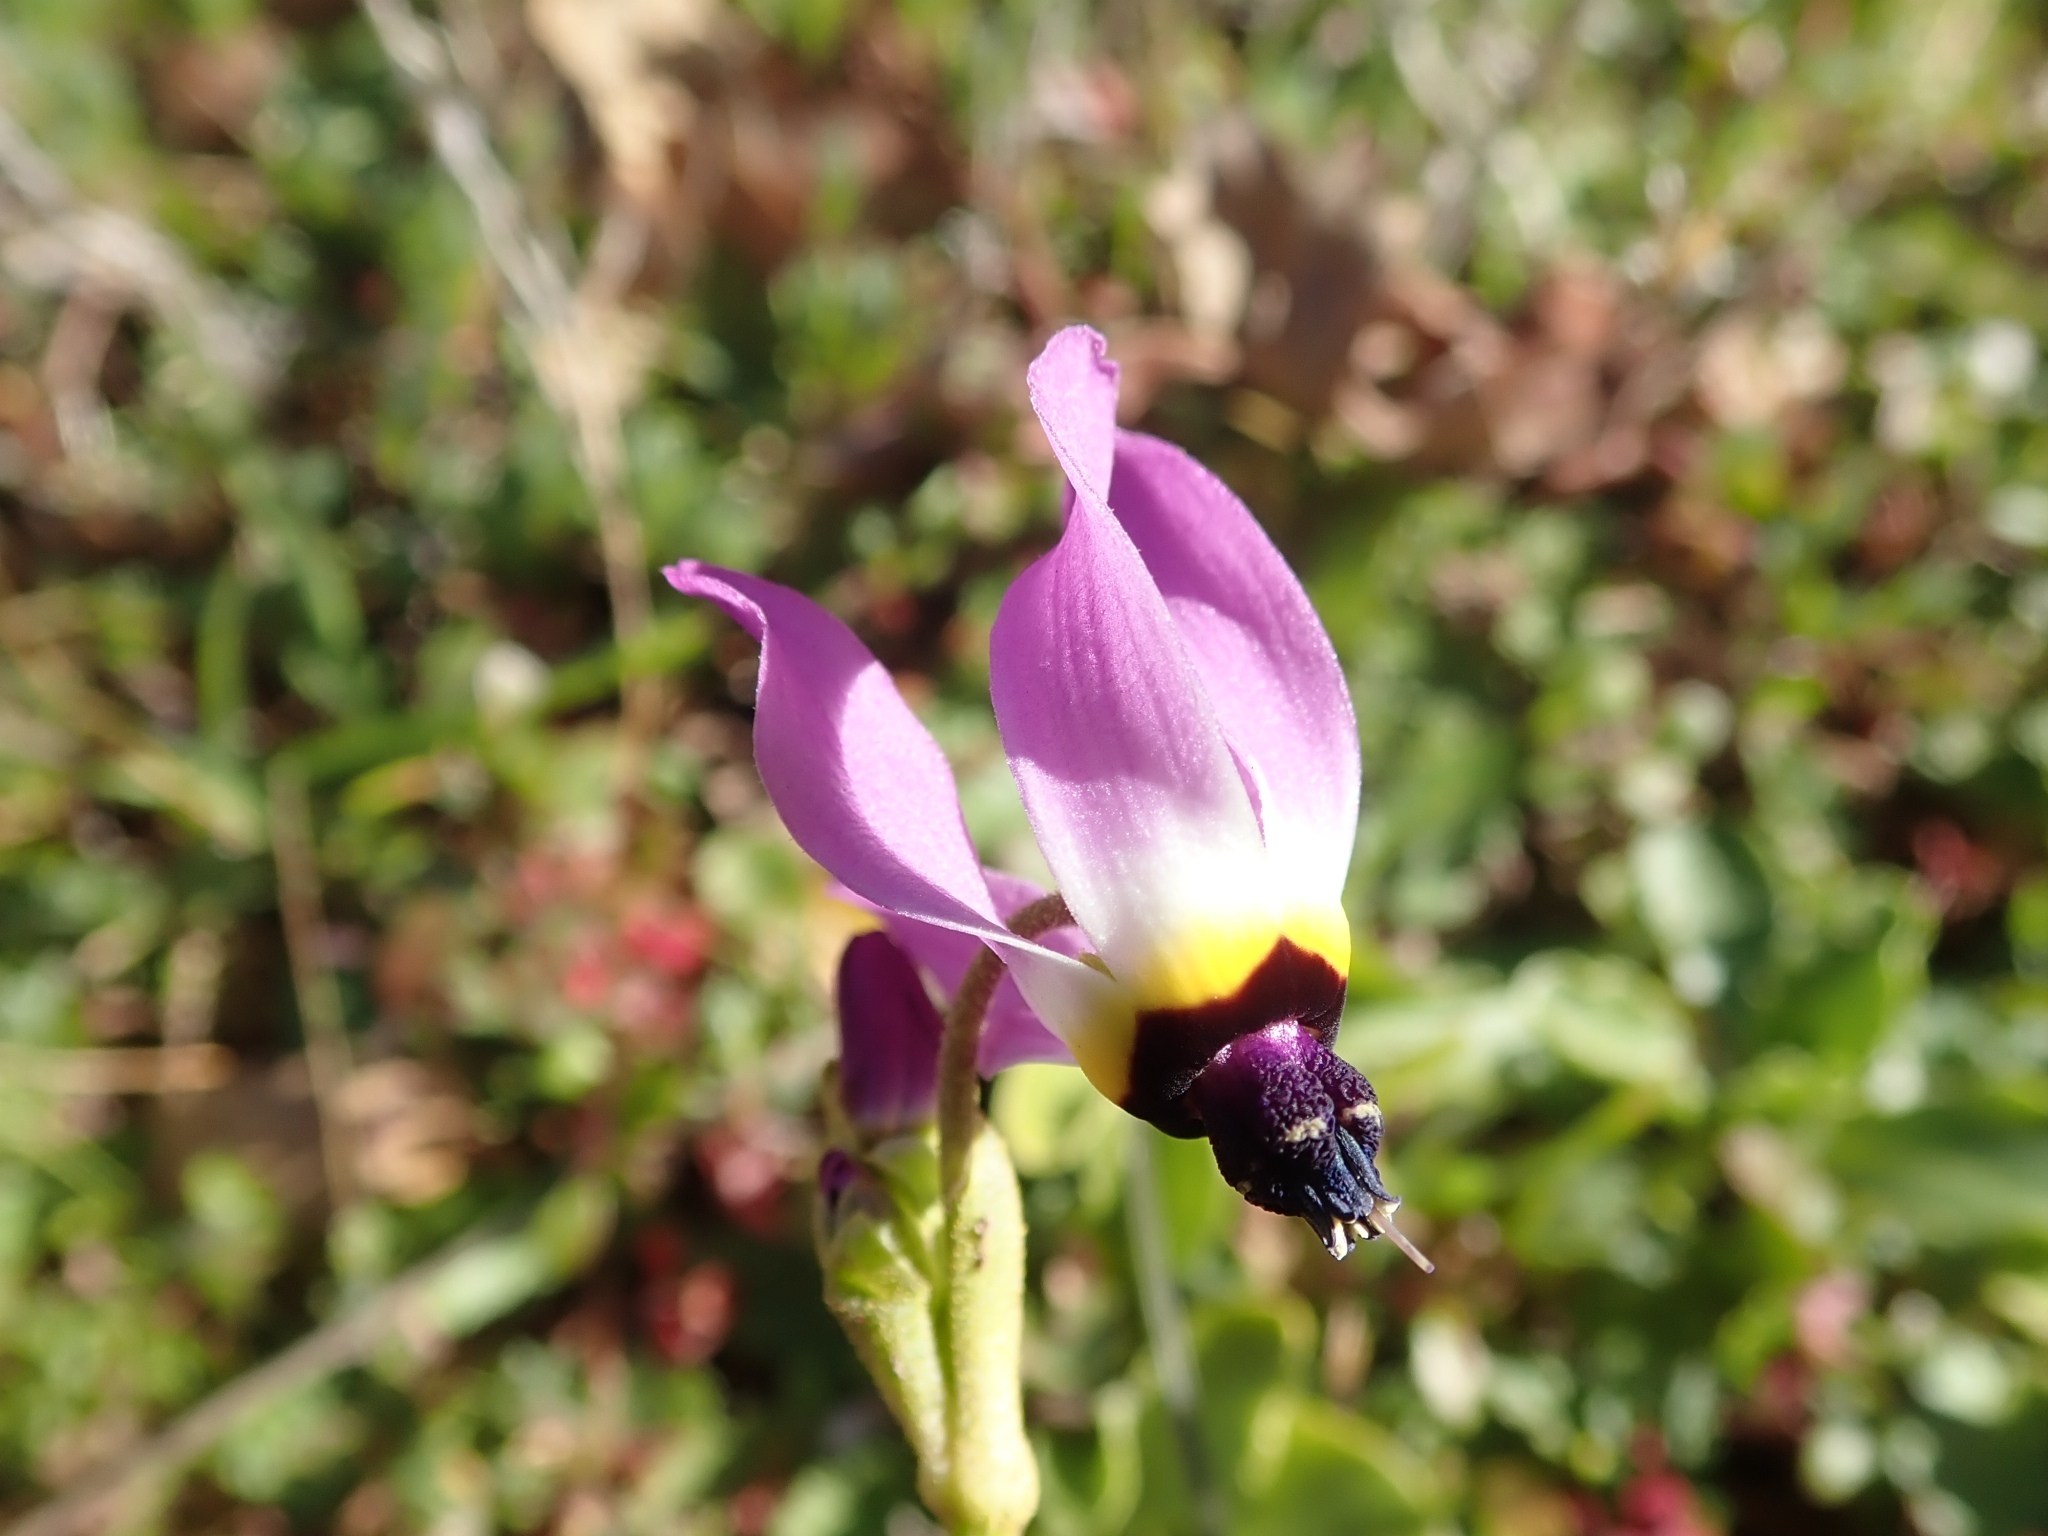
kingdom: Plantae
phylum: Tracheophyta
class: Magnoliopsida
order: Ericales
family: Primulaceae
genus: Dodecatheon
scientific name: Dodecatheon clevelandii
